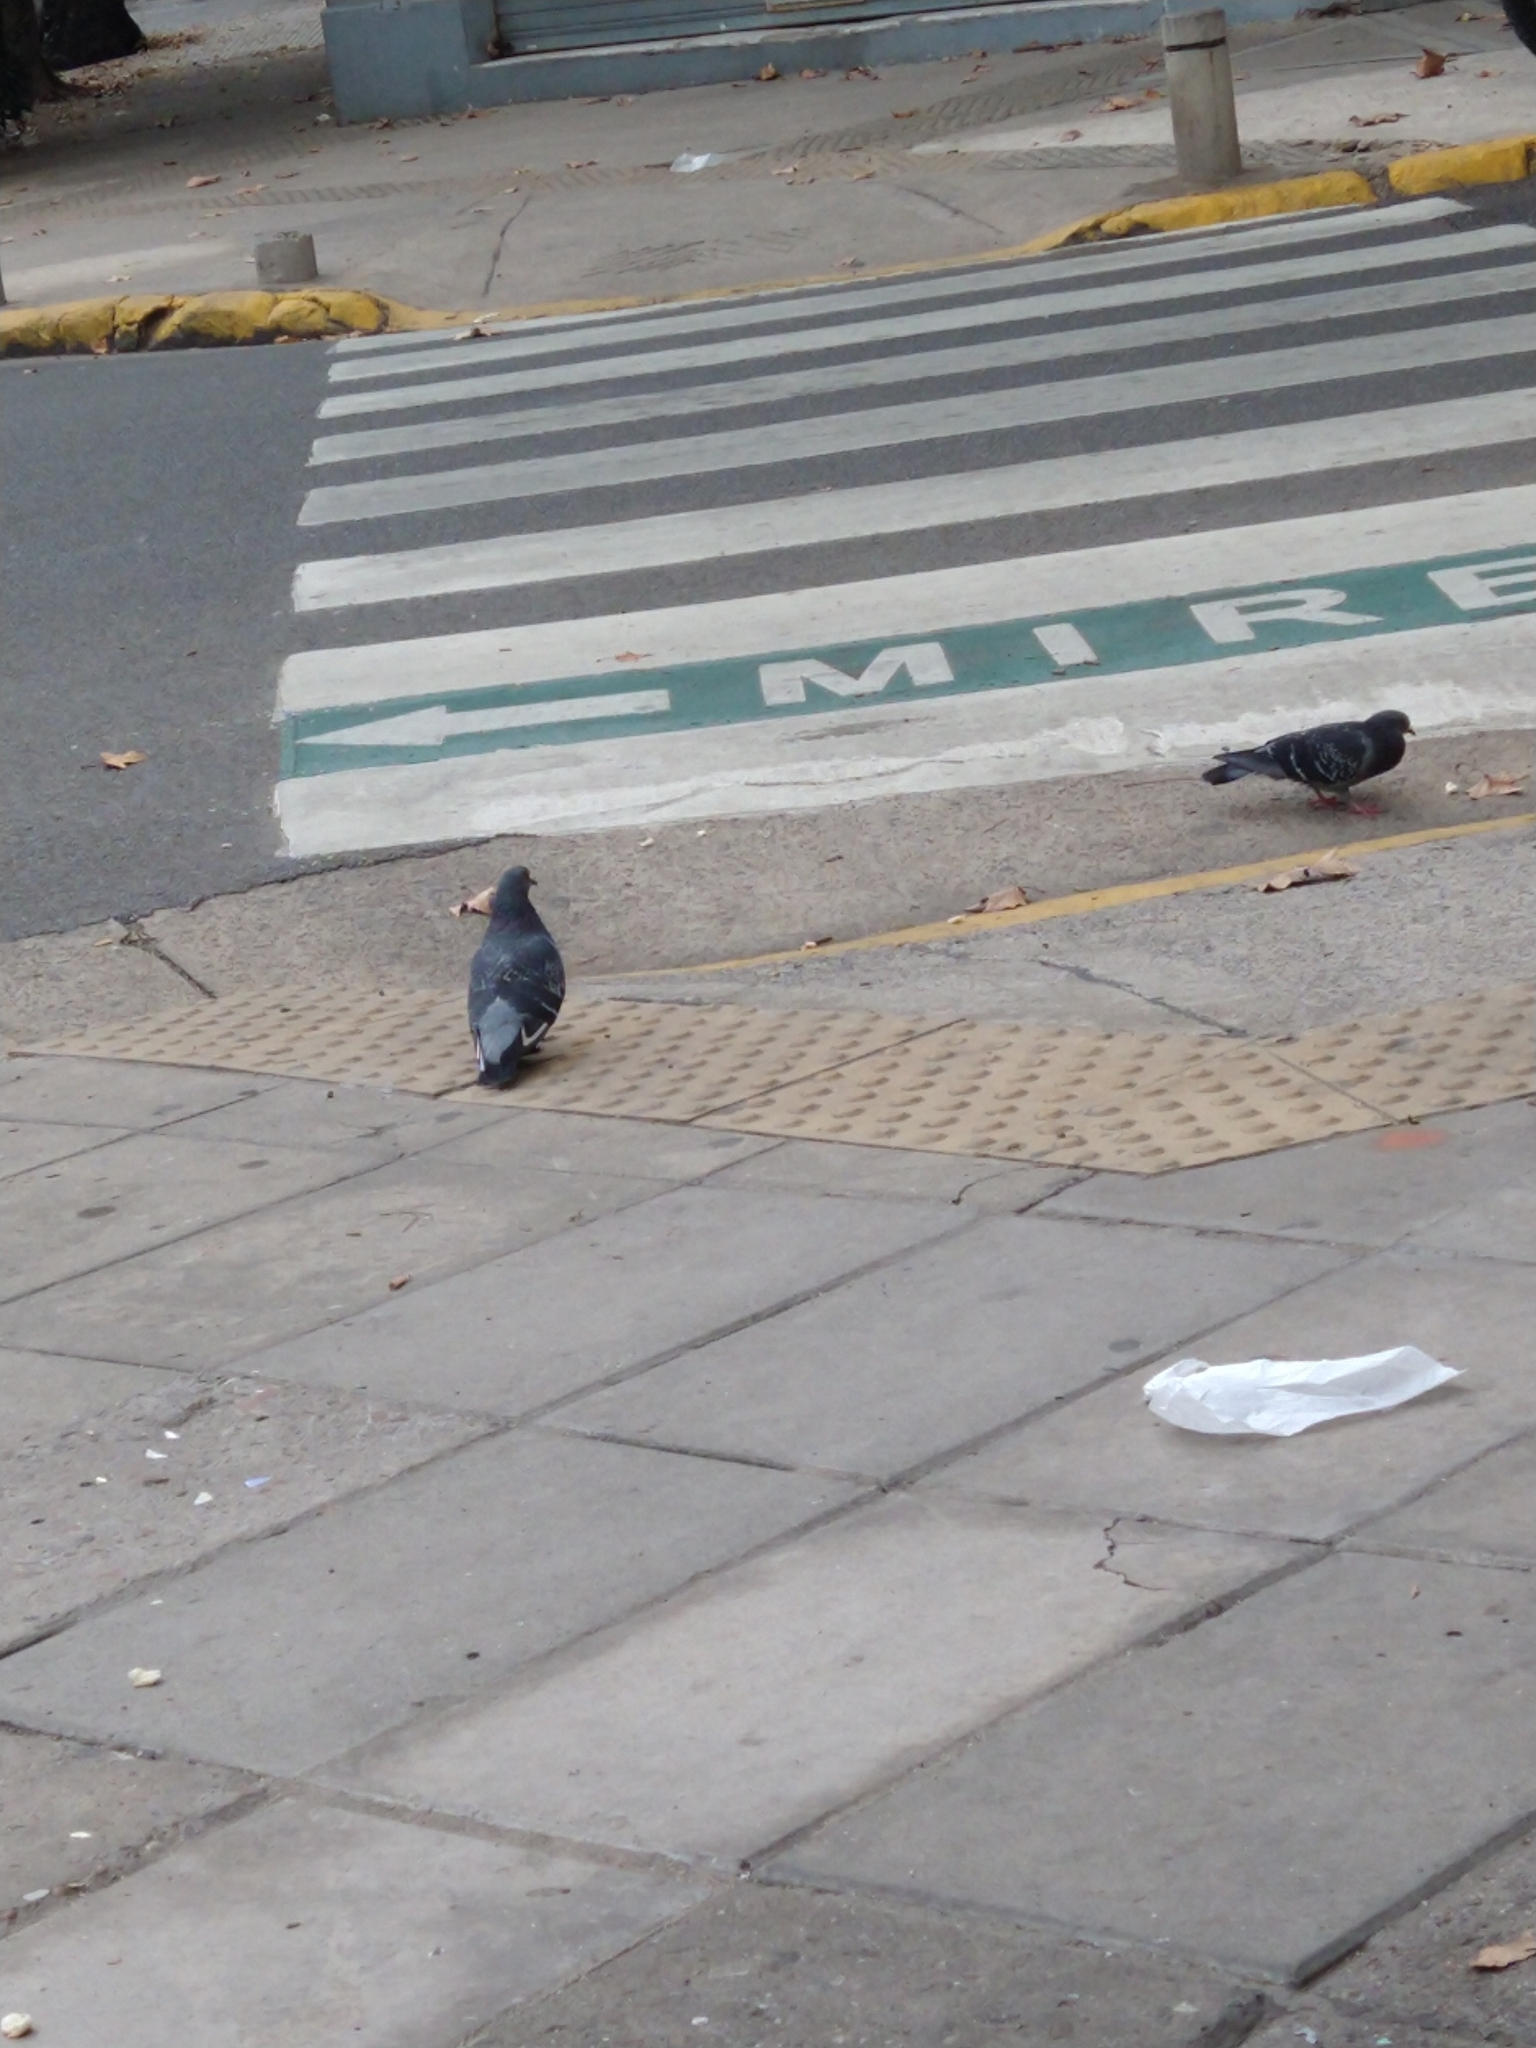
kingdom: Animalia
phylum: Chordata
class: Aves
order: Columbiformes
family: Columbidae
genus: Columba
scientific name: Columba livia
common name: Rock pigeon
